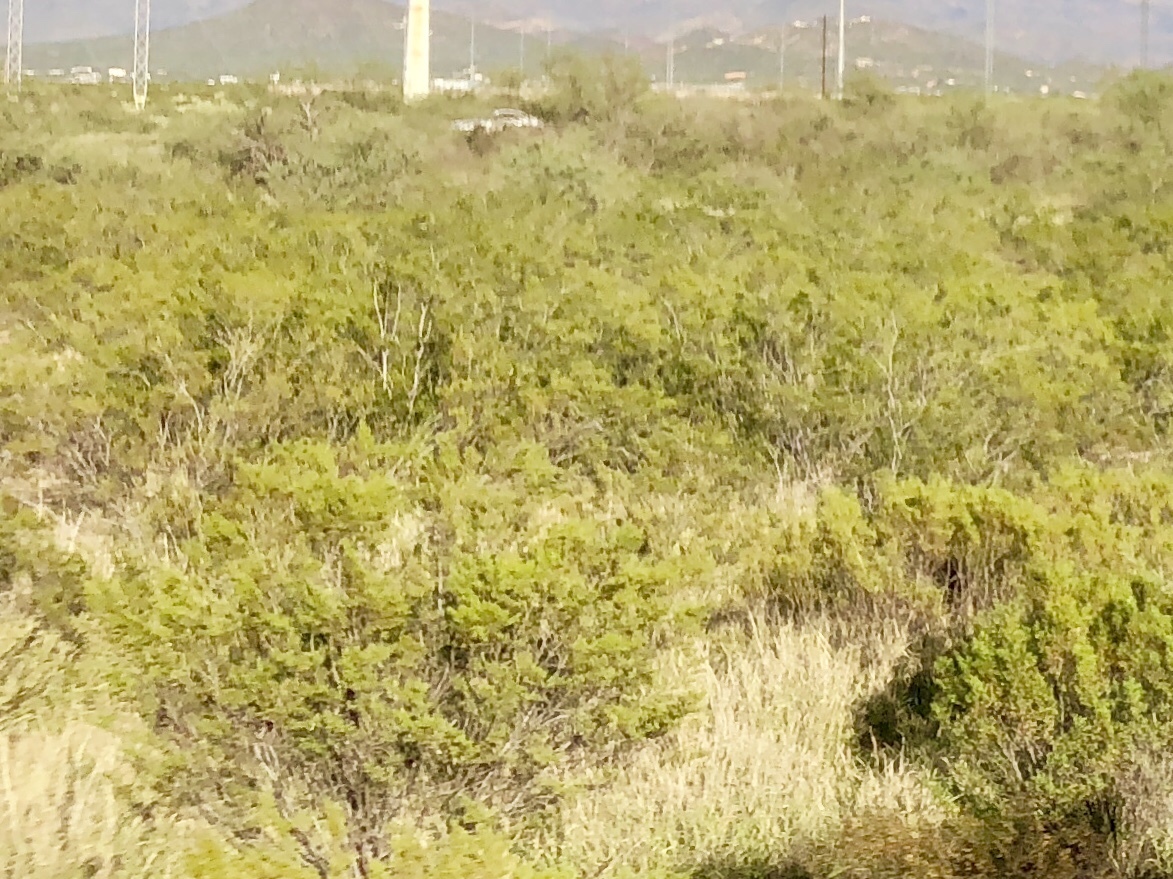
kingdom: Plantae
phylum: Tracheophyta
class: Magnoliopsida
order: Zygophyllales
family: Zygophyllaceae
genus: Larrea
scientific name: Larrea tridentata
